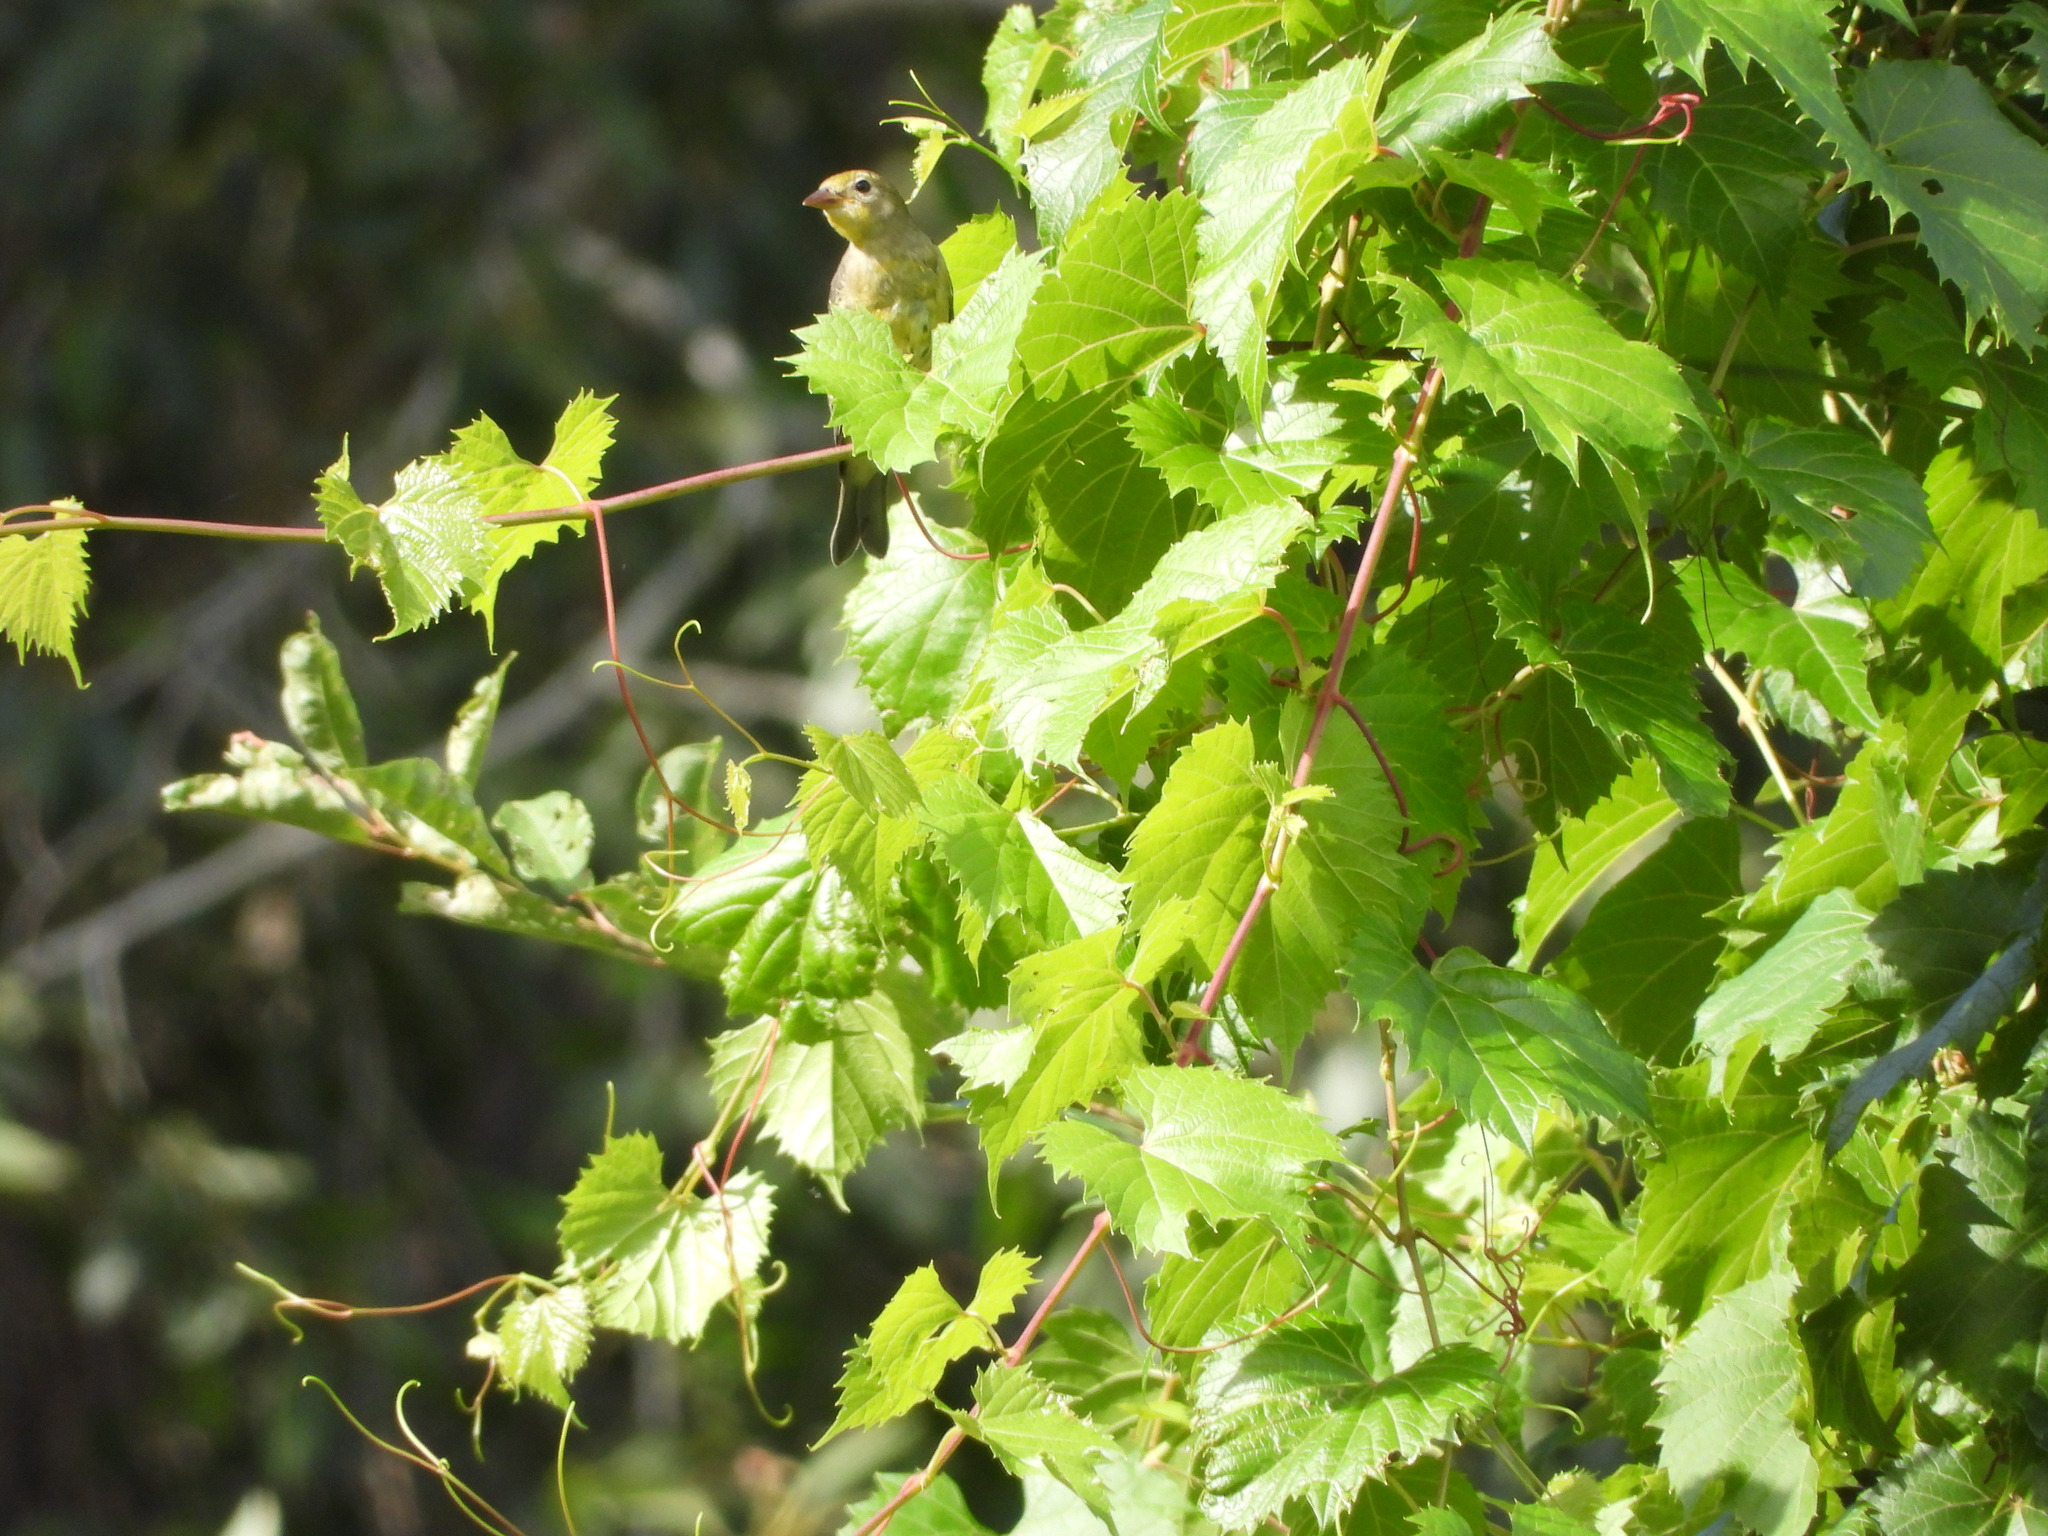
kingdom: Animalia
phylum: Chordata
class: Aves
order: Passeriformes
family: Cardinalidae
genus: Piranga
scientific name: Piranga ludoviciana
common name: Western tanager
